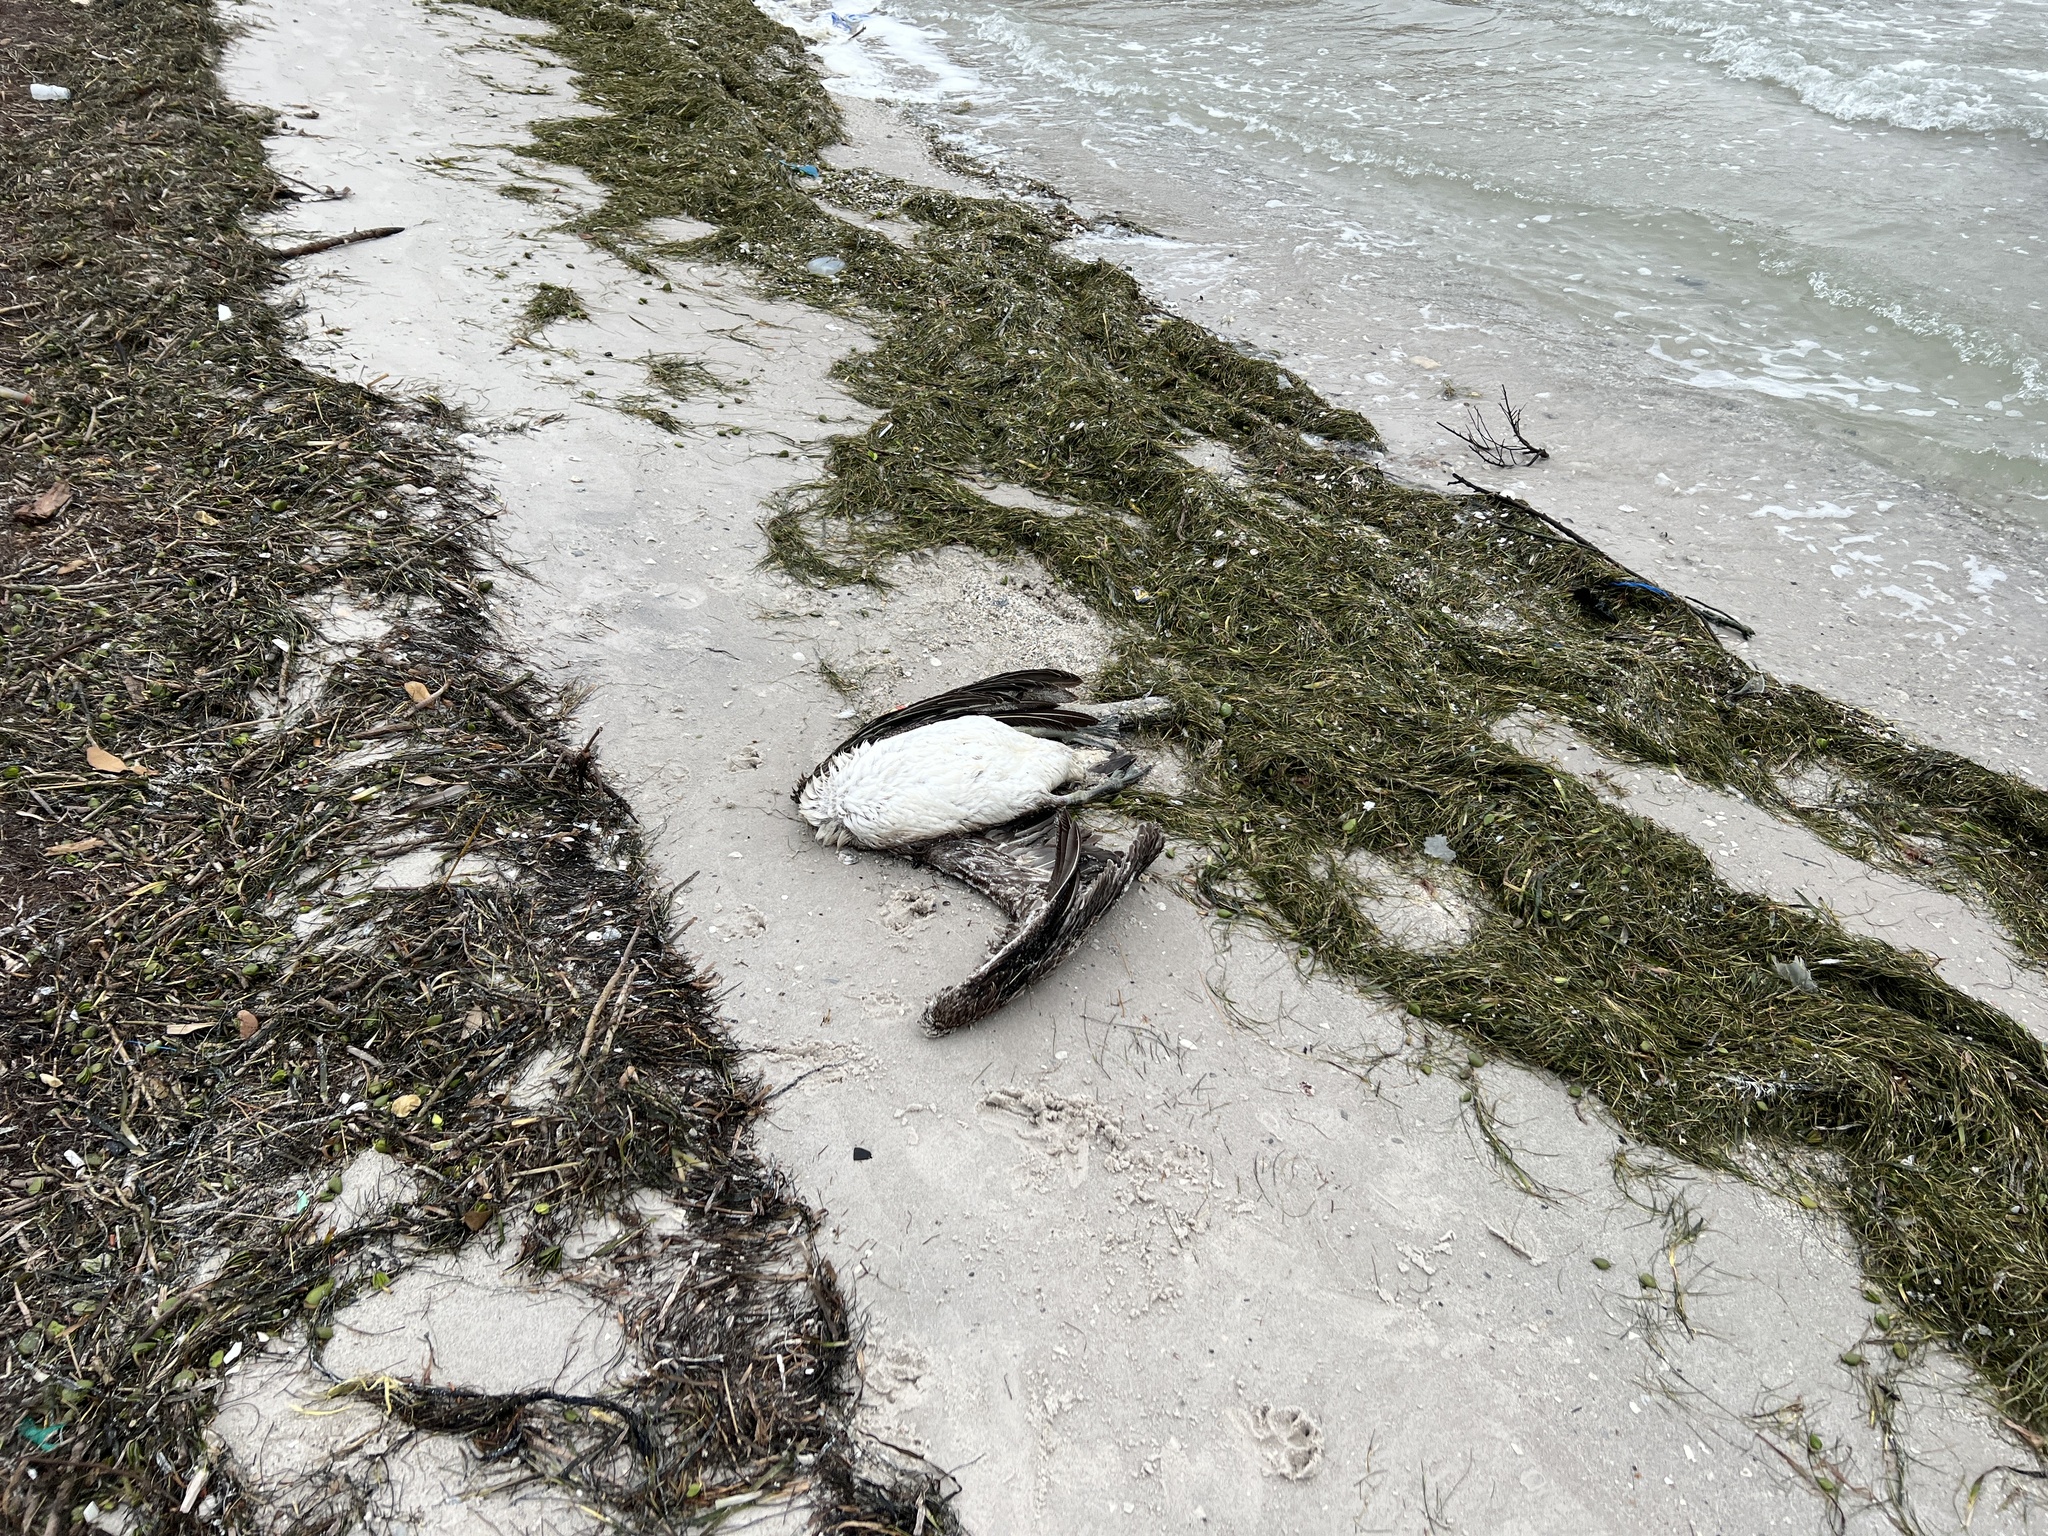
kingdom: Animalia
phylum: Chordata
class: Aves
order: Pelecaniformes
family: Pelecanidae
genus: Pelecanus
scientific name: Pelecanus occidentalis
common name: Brown pelican
